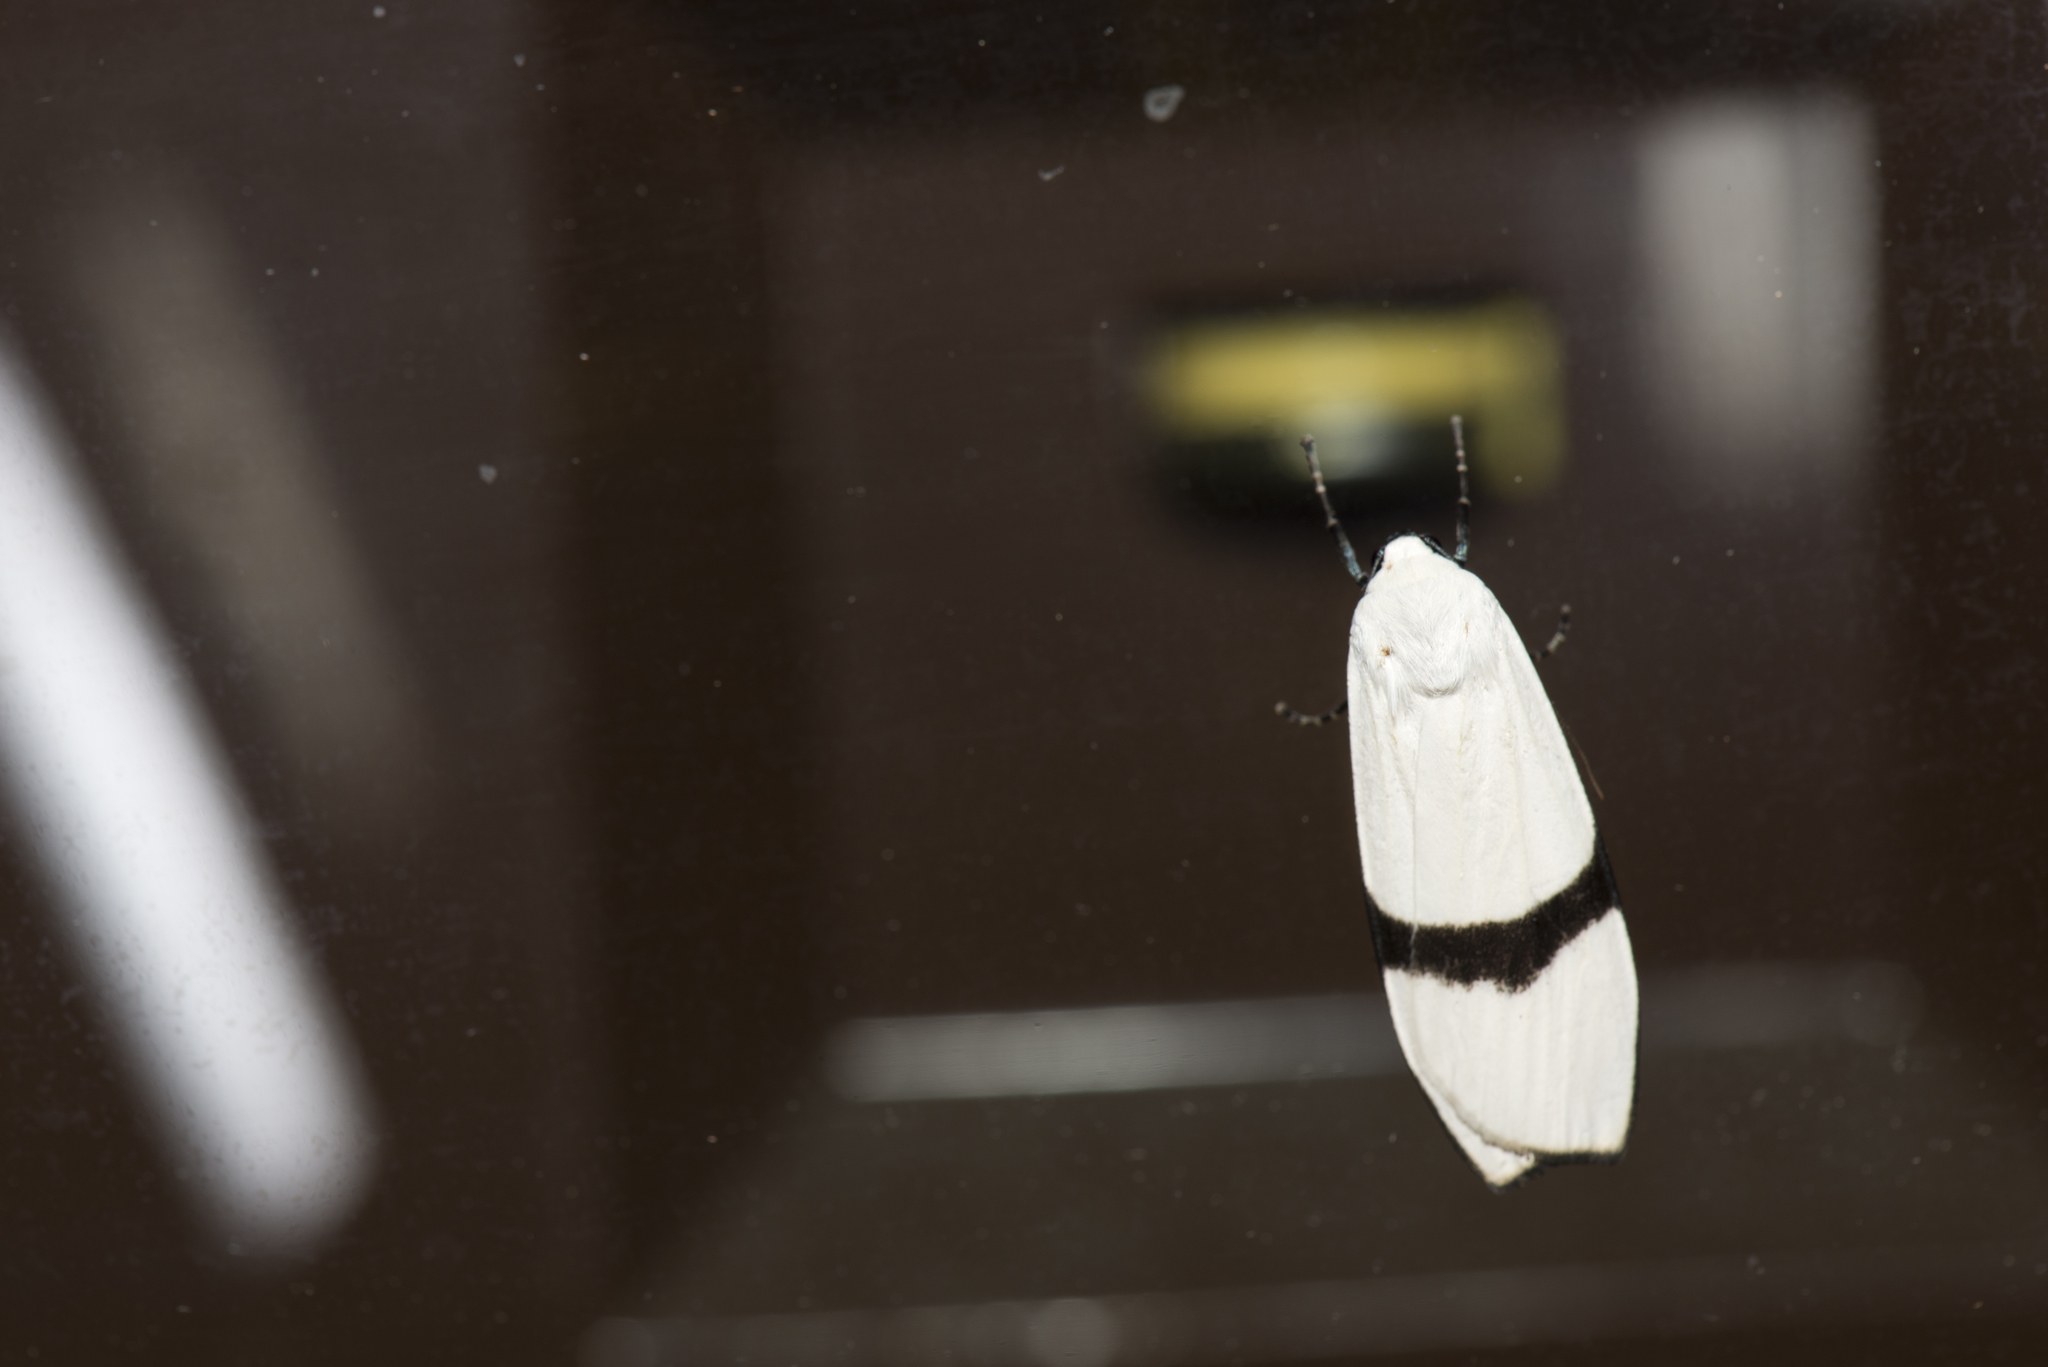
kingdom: Animalia
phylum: Arthropoda
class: Insecta
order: Lepidoptera
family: Erebidae
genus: Vamuna
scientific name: Vamuna alboluteola
